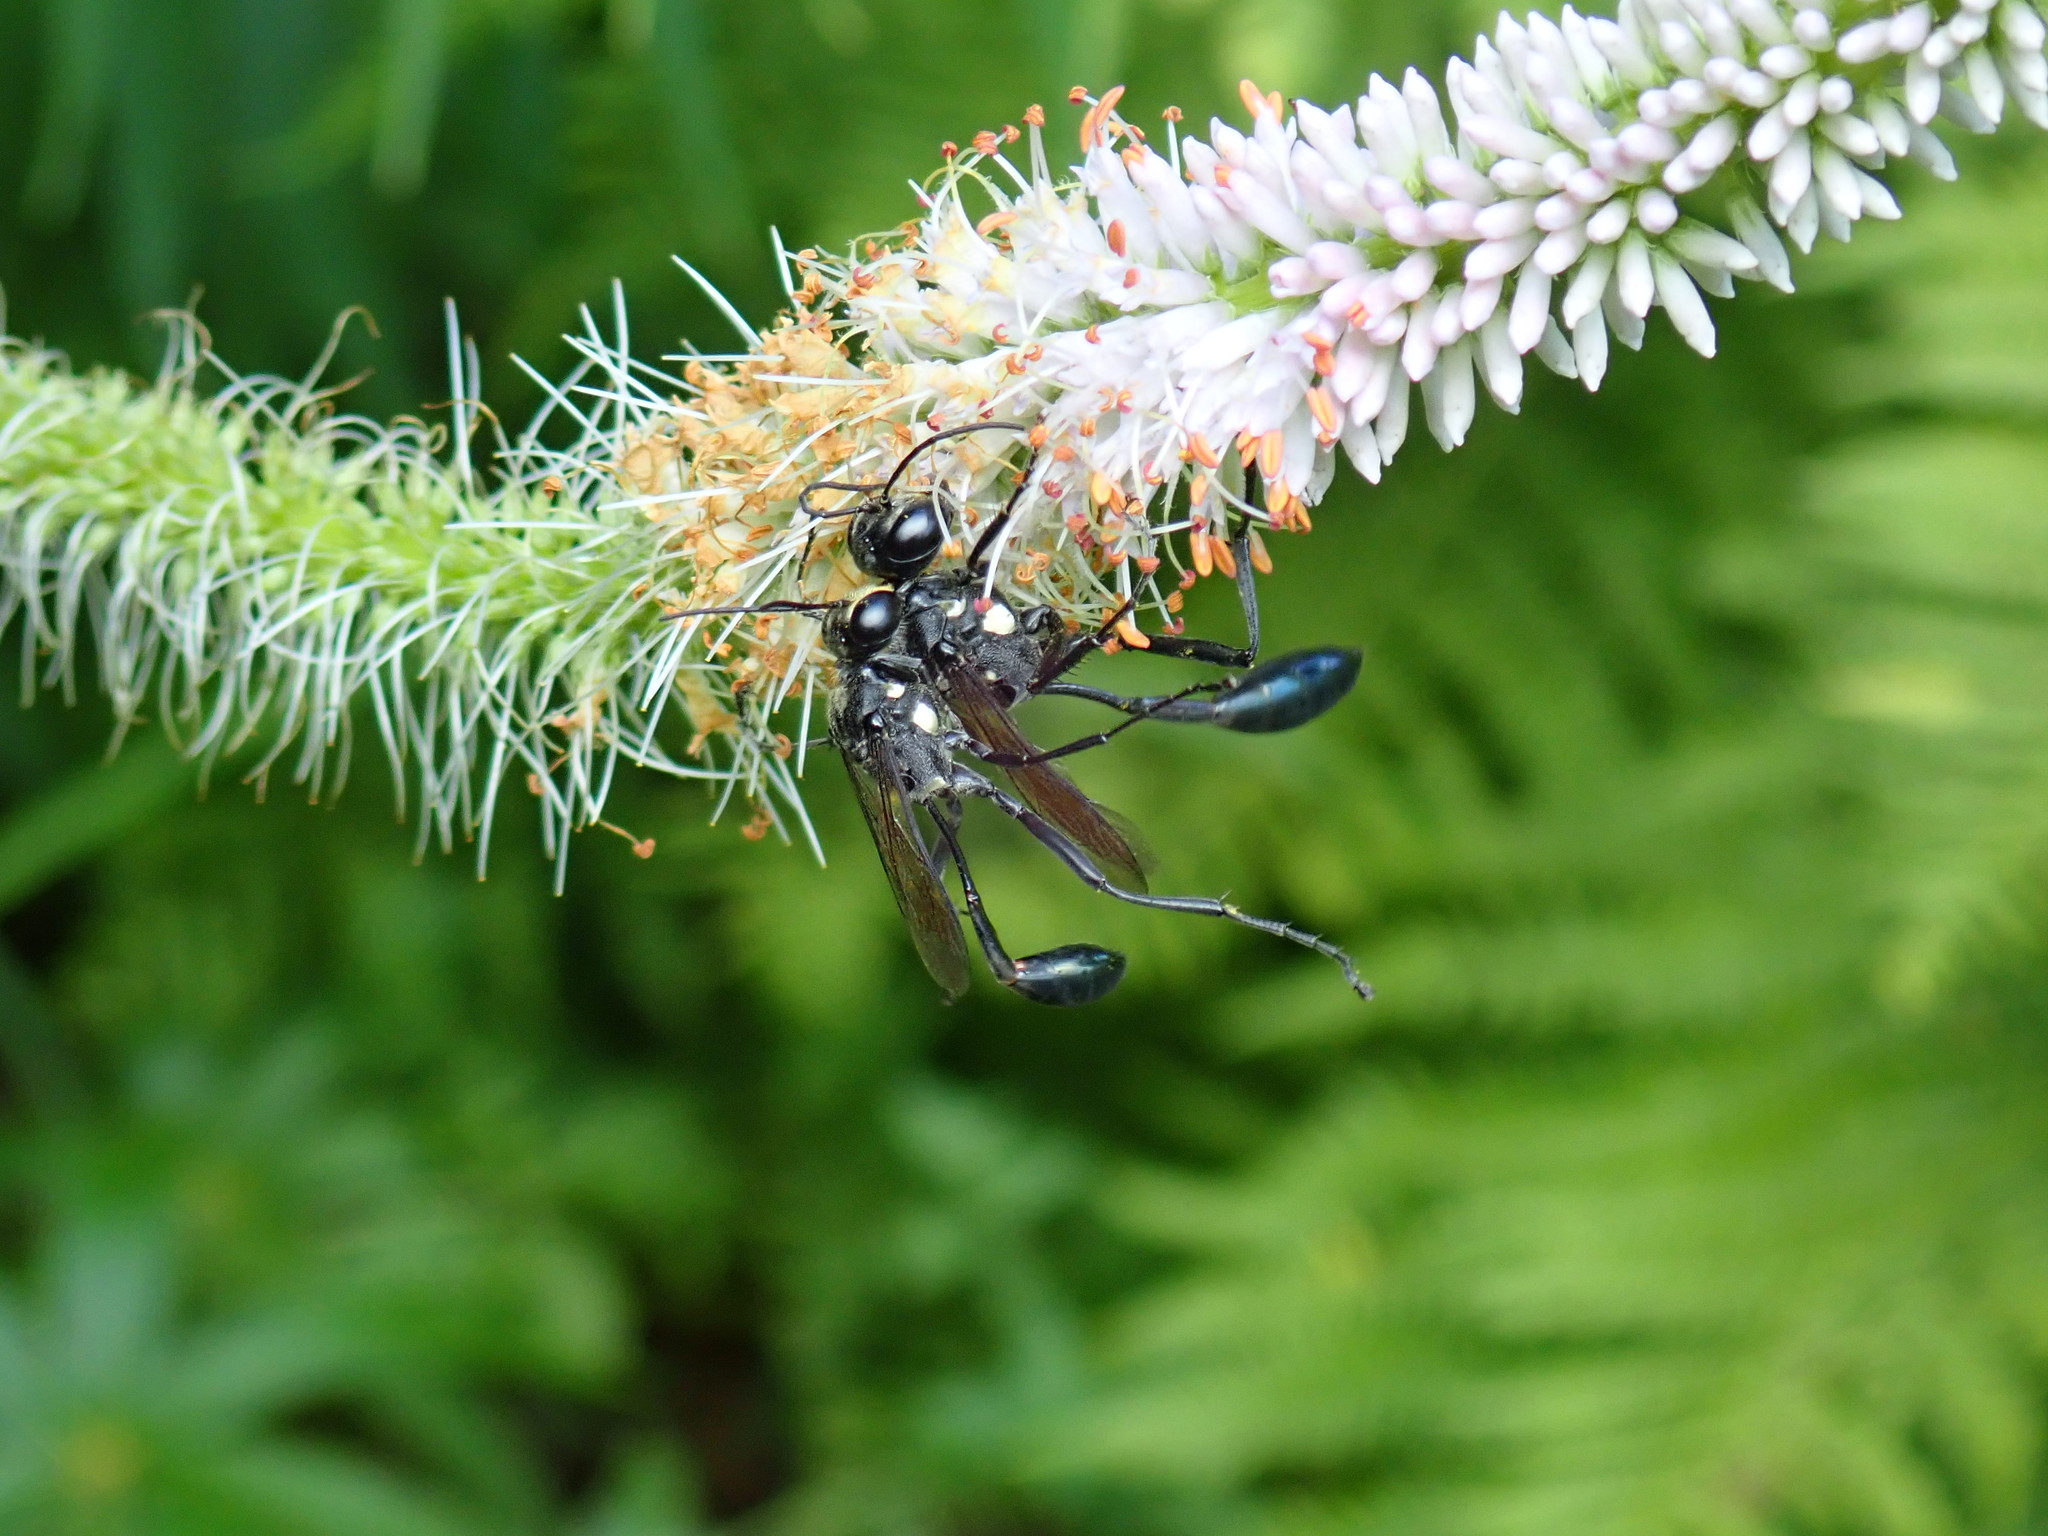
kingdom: Animalia
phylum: Arthropoda
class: Insecta
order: Hymenoptera
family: Sphecidae
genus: Eremnophila
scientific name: Eremnophila aureonotata
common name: Gold-marked thread-waisted wasp
